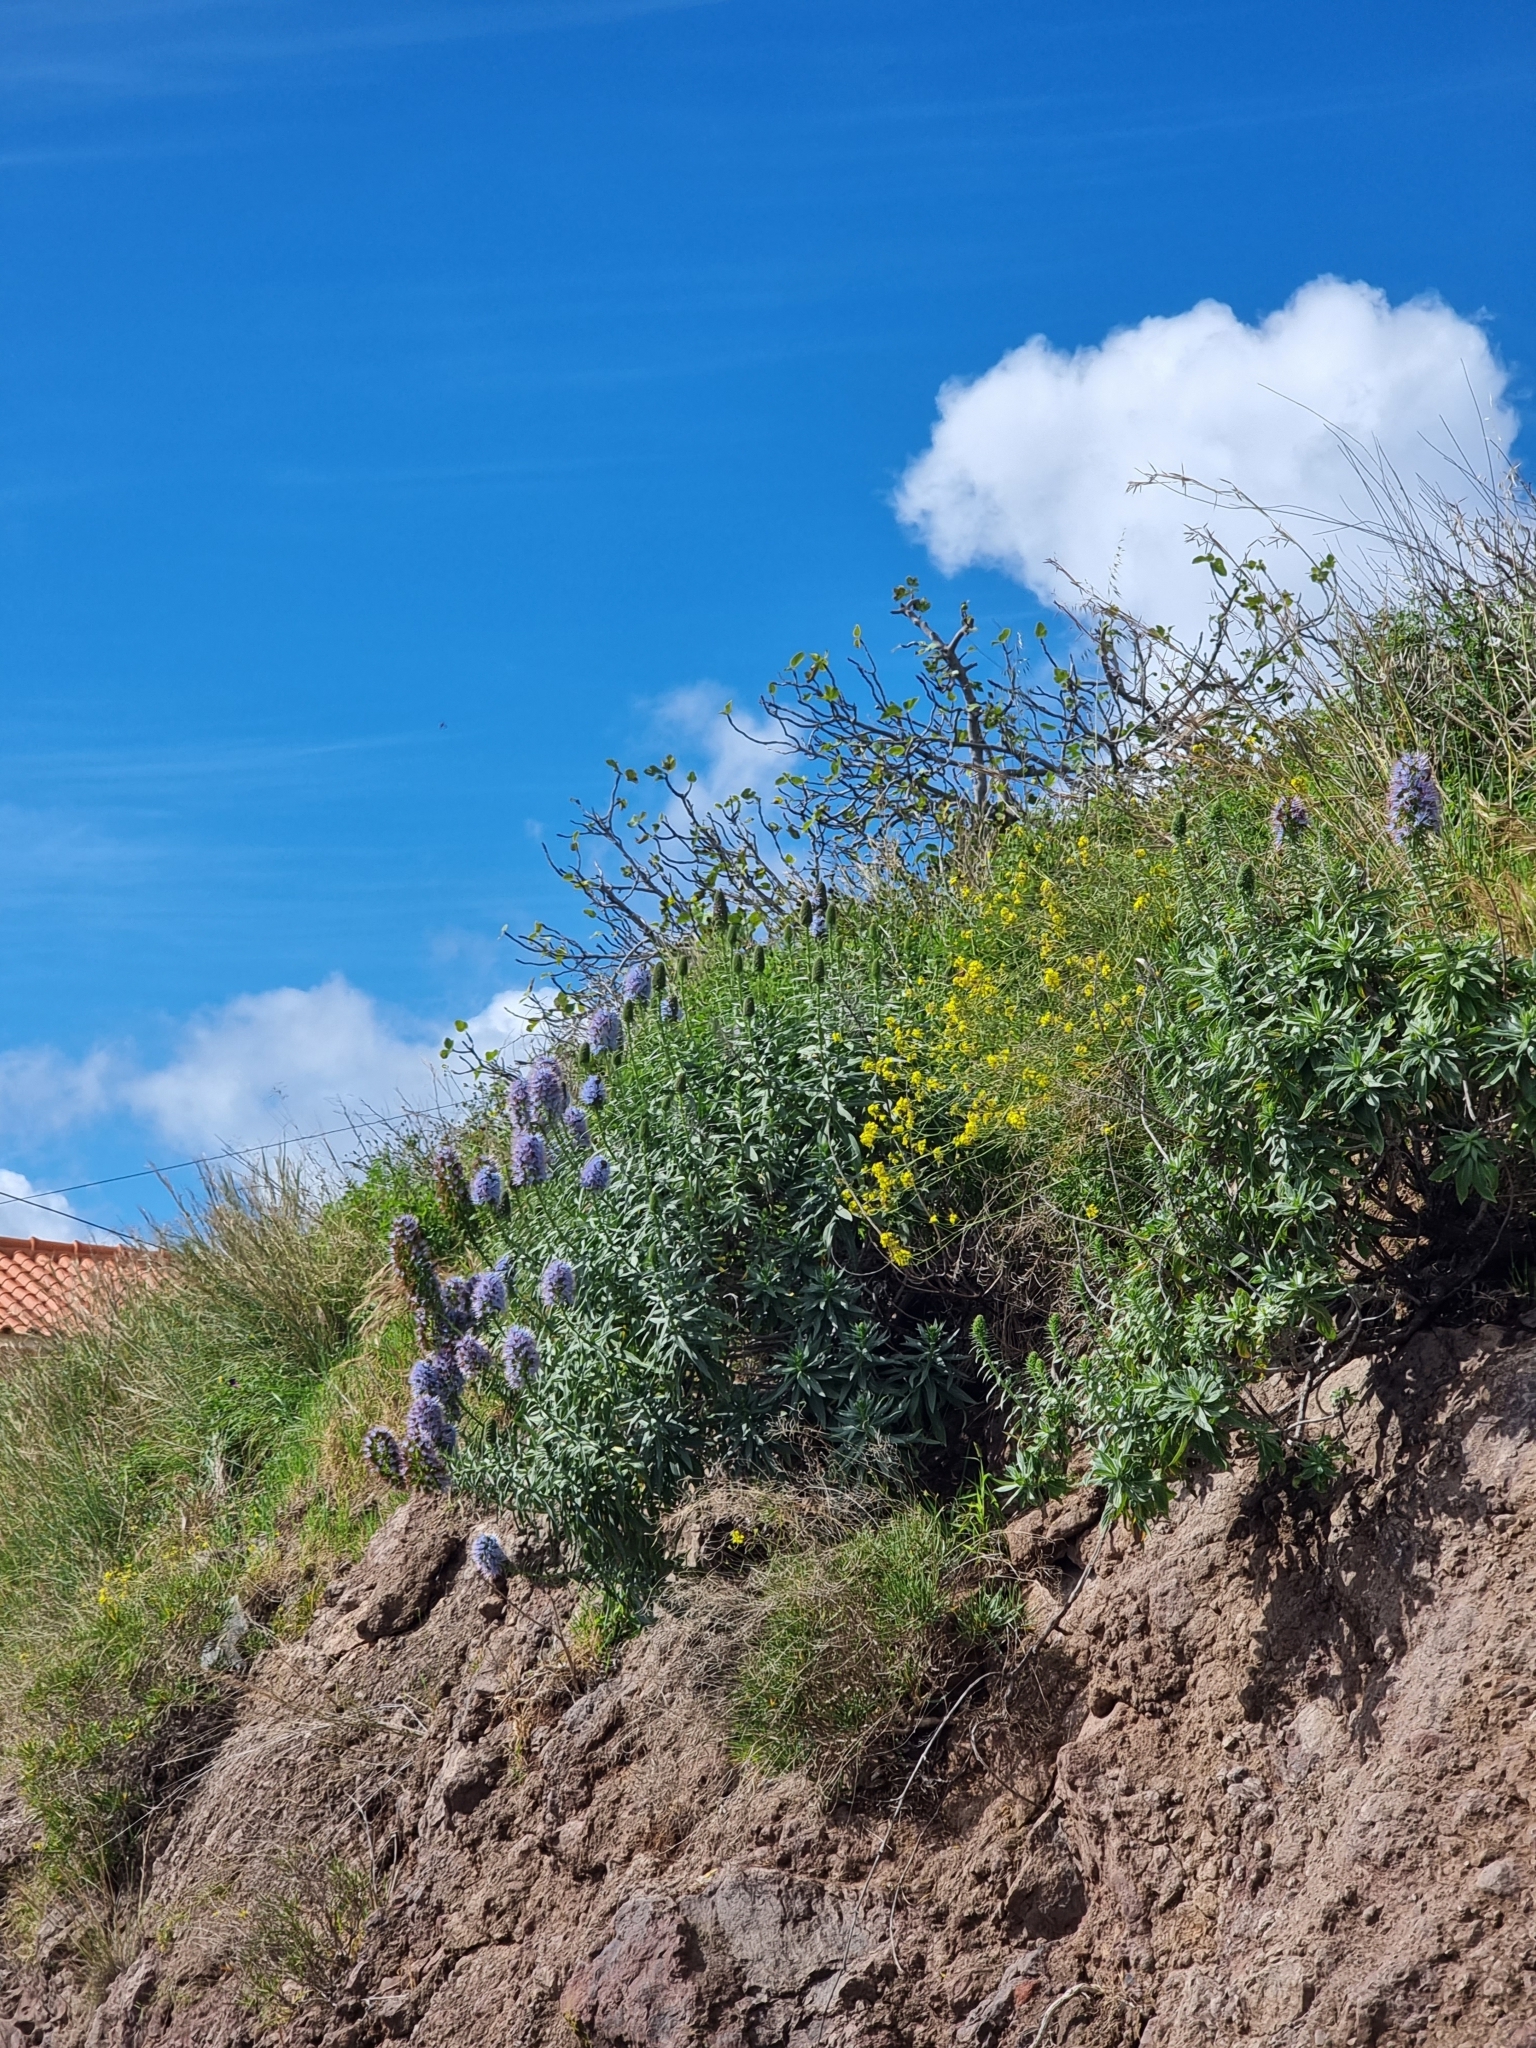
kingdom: Plantae
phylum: Tracheophyta
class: Magnoliopsida
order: Boraginales
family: Boraginaceae
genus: Echium
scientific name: Echium nervosum
